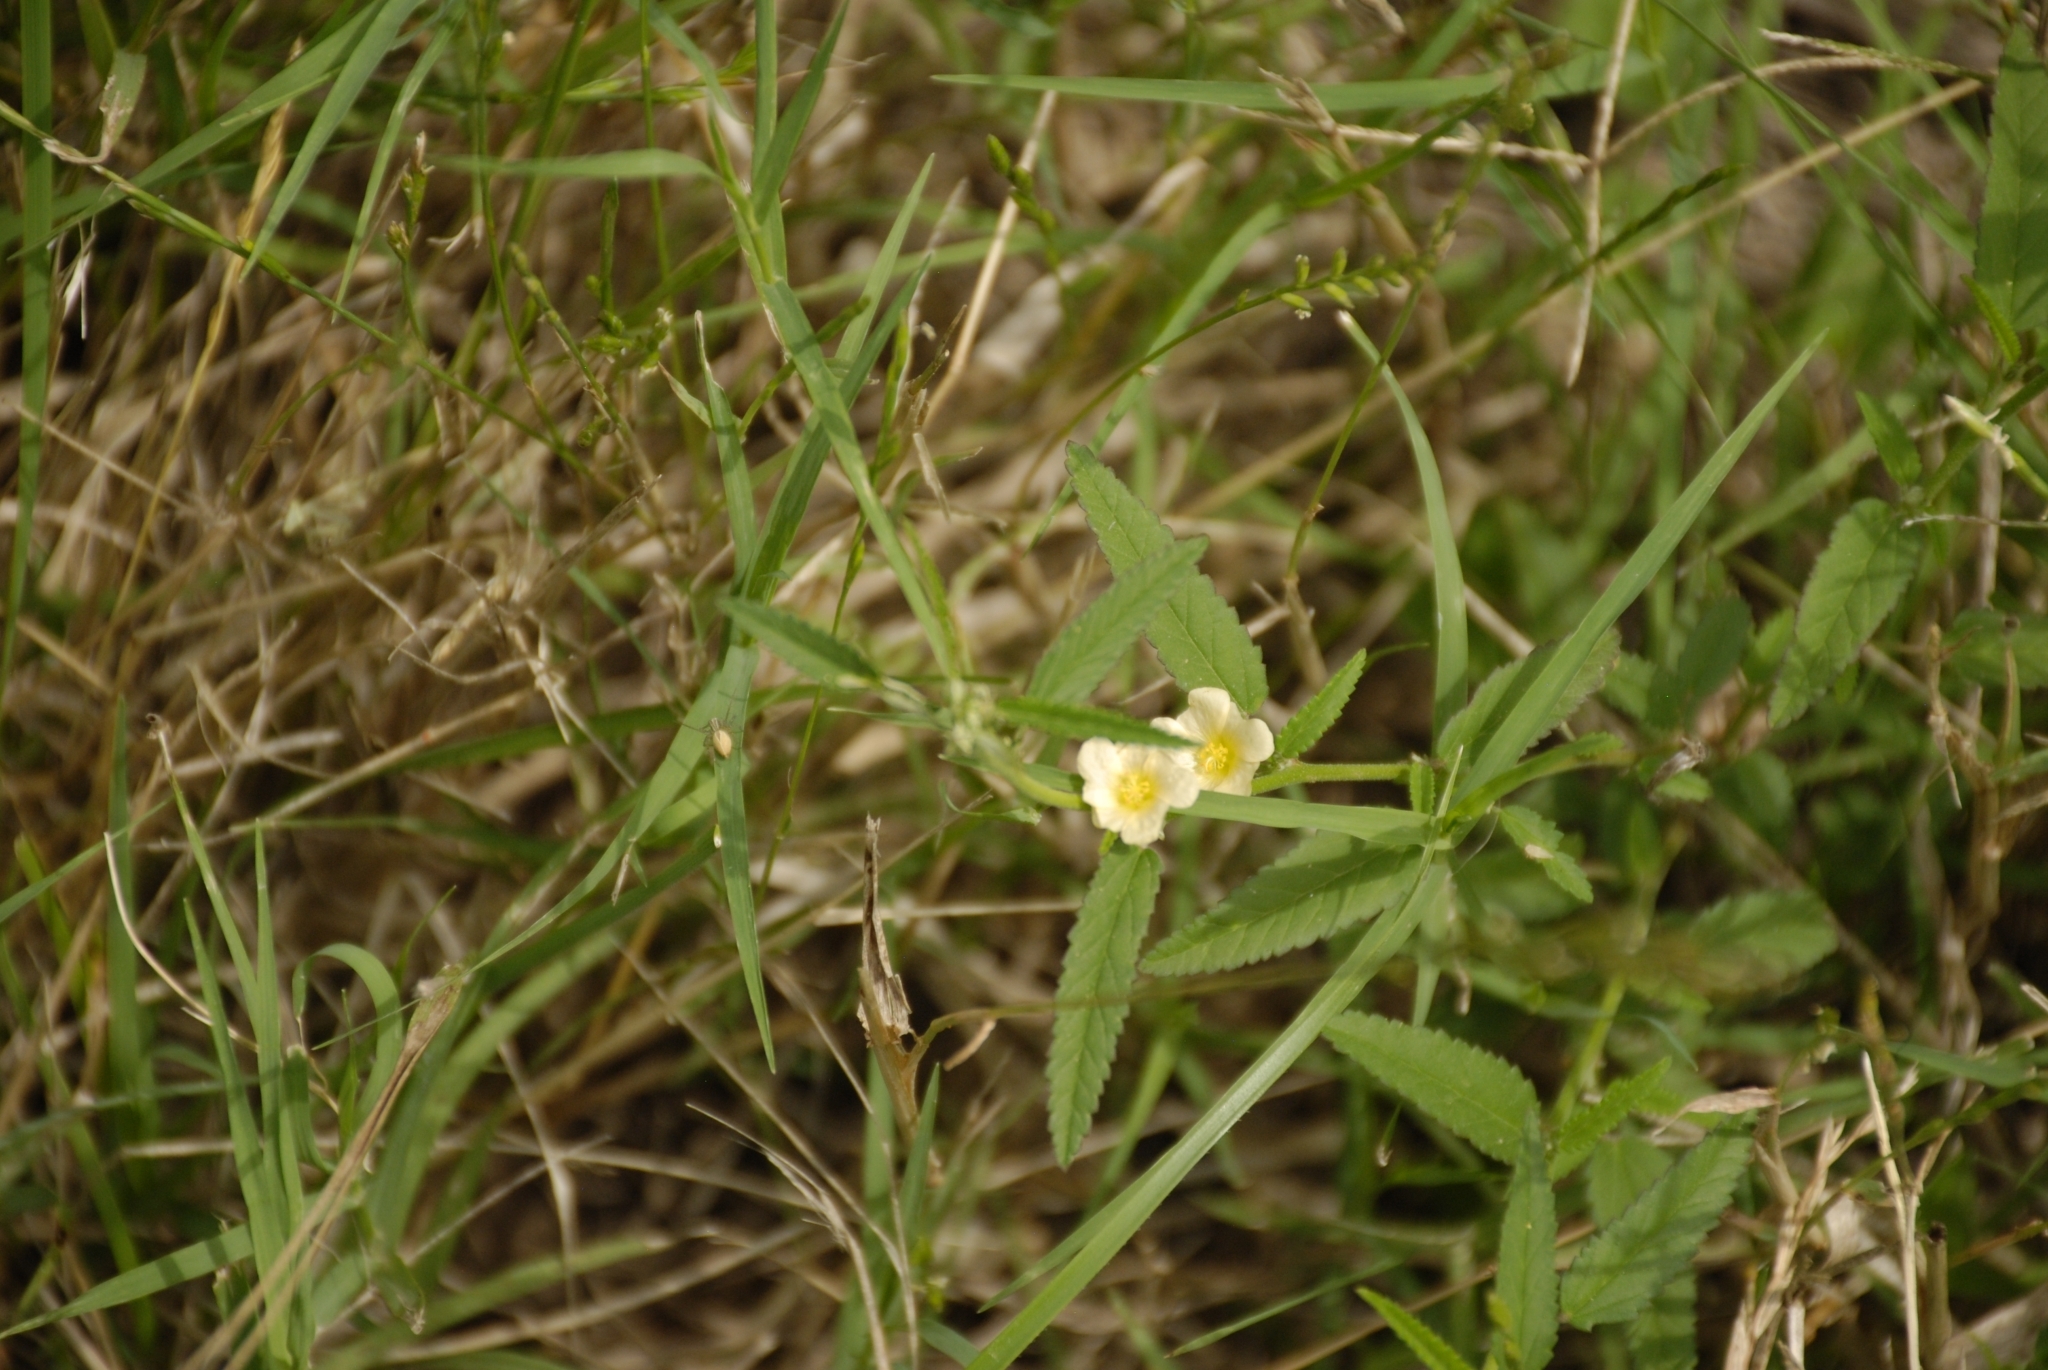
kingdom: Plantae
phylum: Tracheophyta
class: Magnoliopsida
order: Malvales
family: Malvaceae
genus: Sida
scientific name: Sida spinosa
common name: Prickly fanpetals
